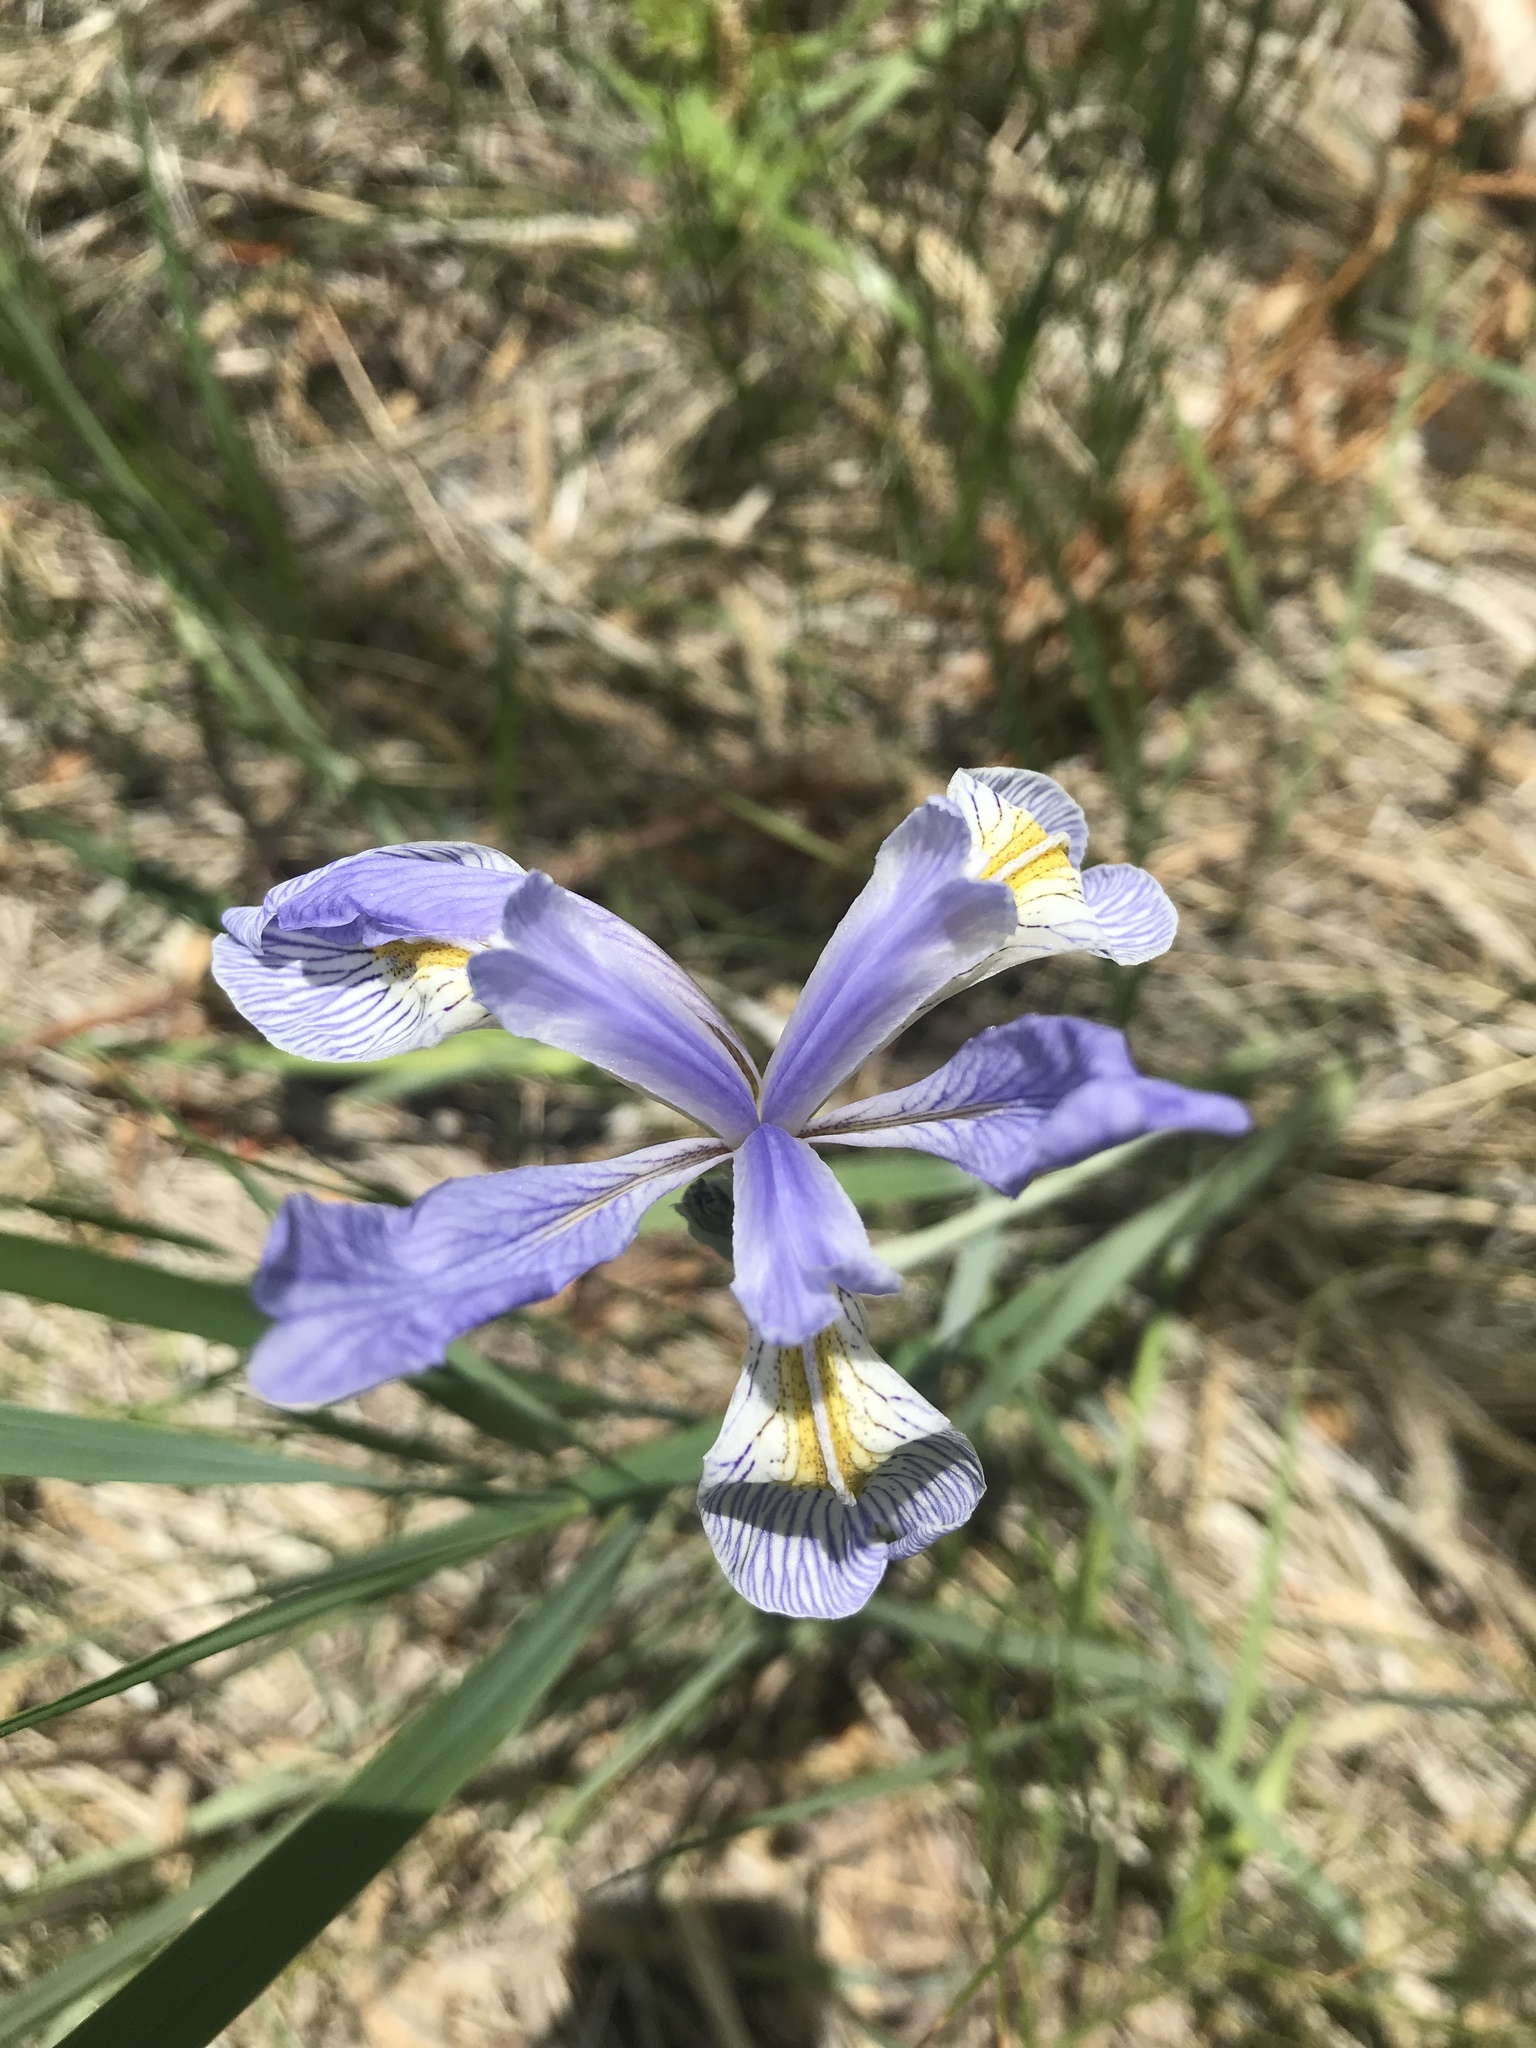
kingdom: Plantae
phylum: Tracheophyta
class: Liliopsida
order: Asparagales
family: Iridaceae
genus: Iris
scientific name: Iris missouriensis
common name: Rocky mountain iris
